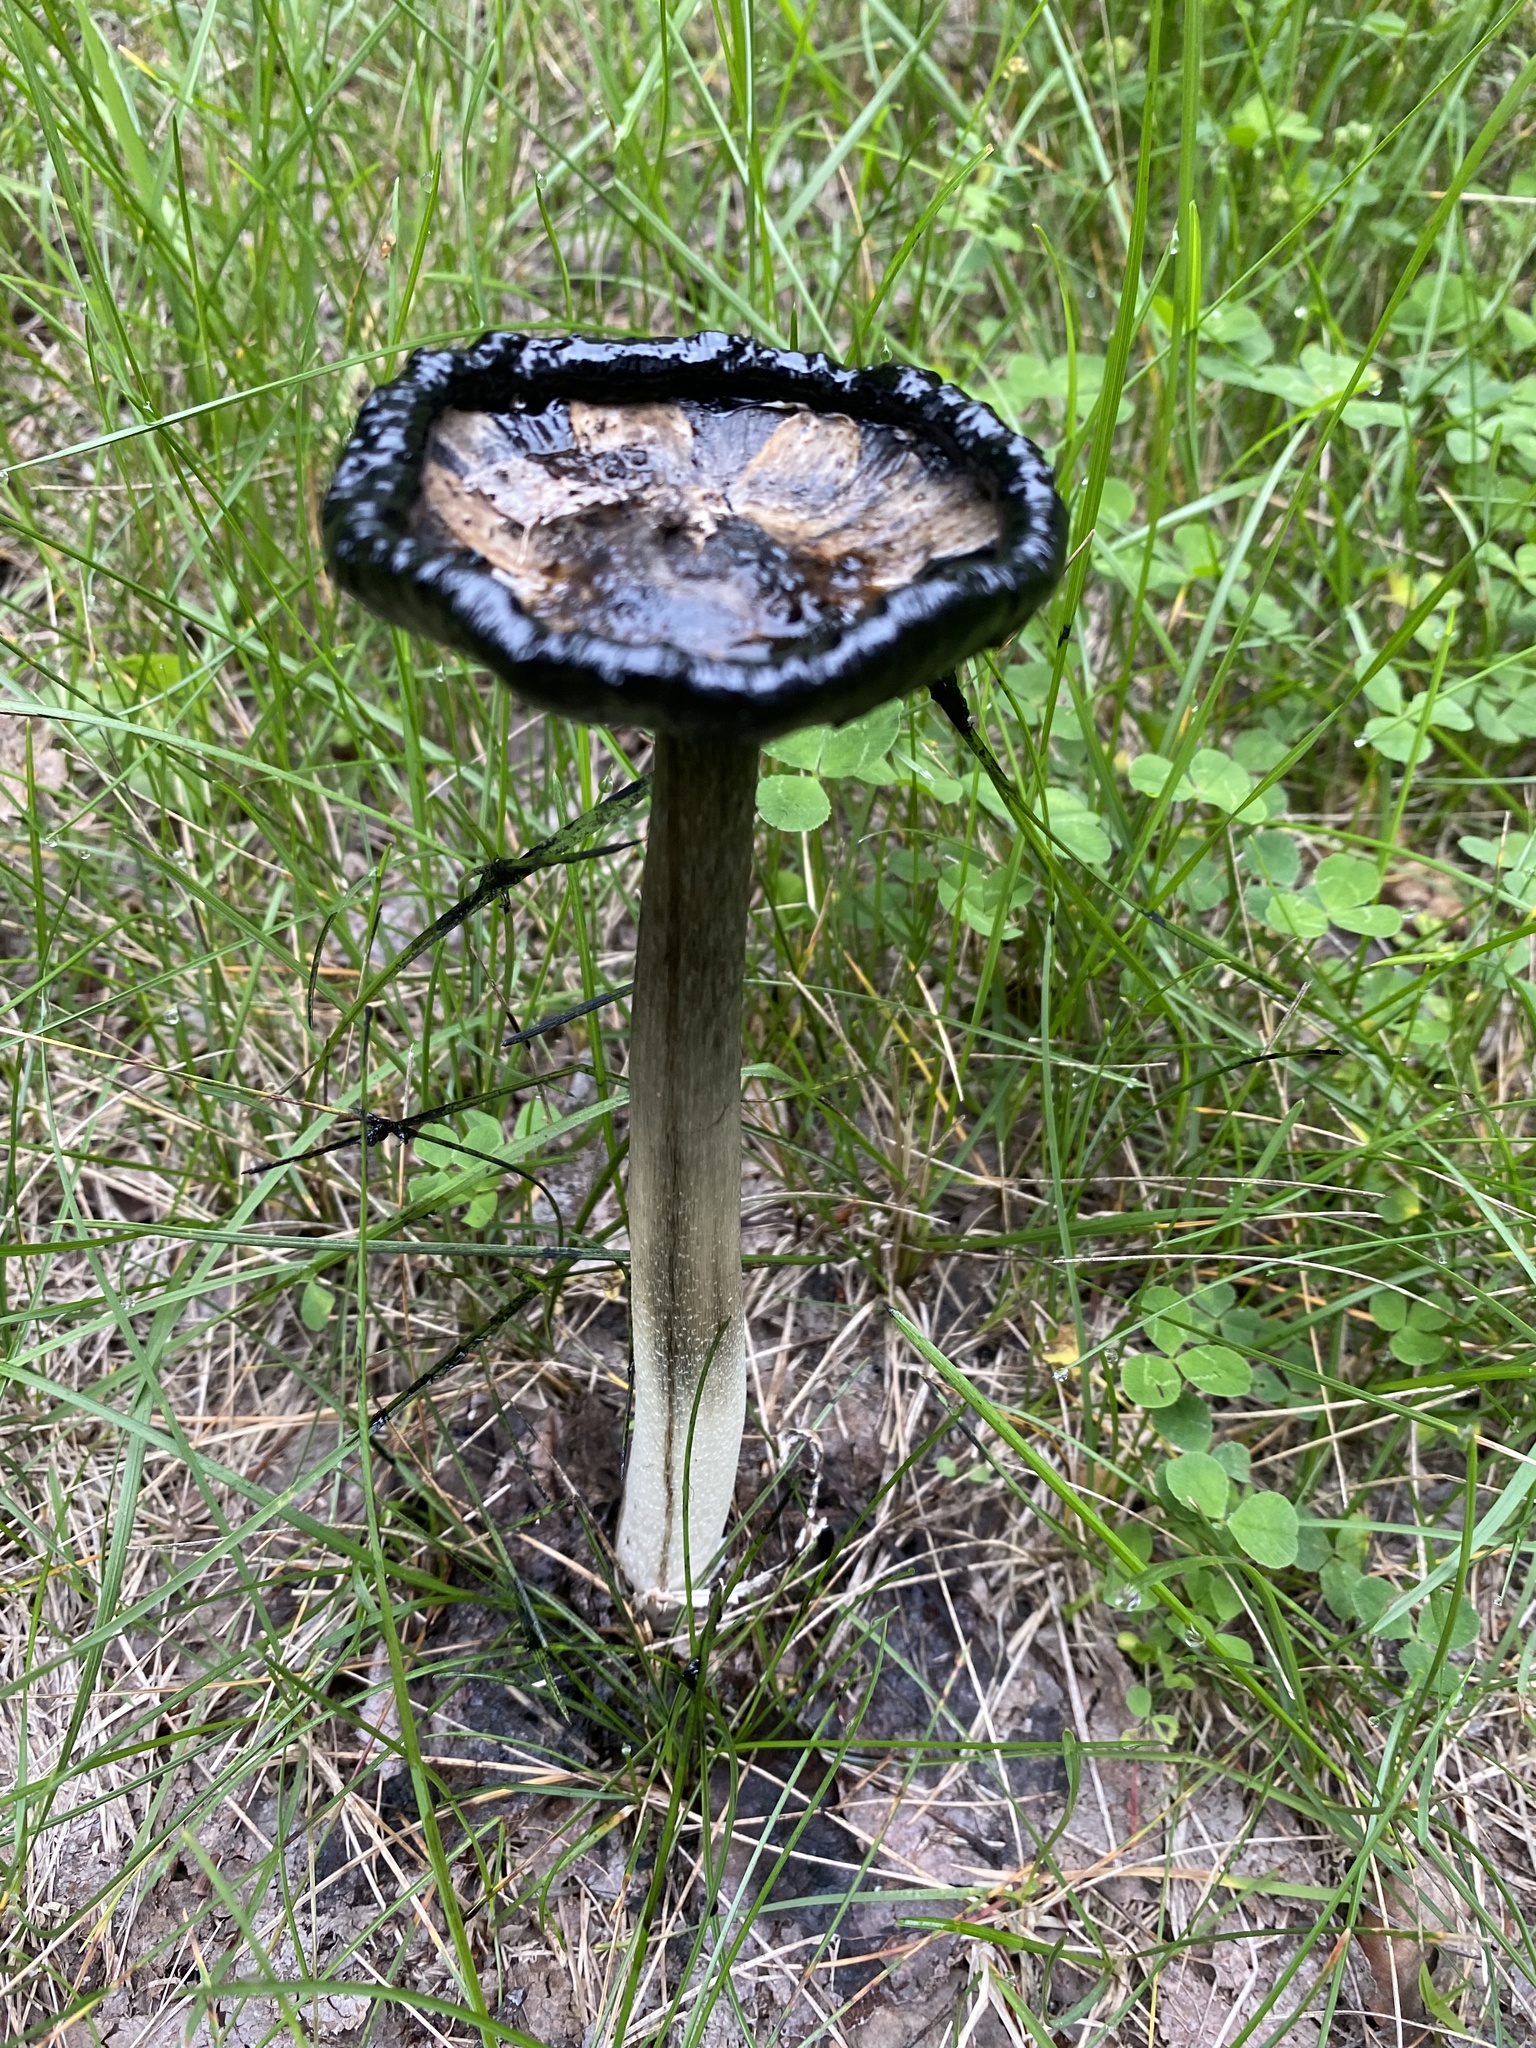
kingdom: Fungi
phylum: Basidiomycota
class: Agaricomycetes
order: Agaricales
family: Agaricaceae
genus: Coprinus
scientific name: Coprinus comatus
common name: Lawyer's wig
